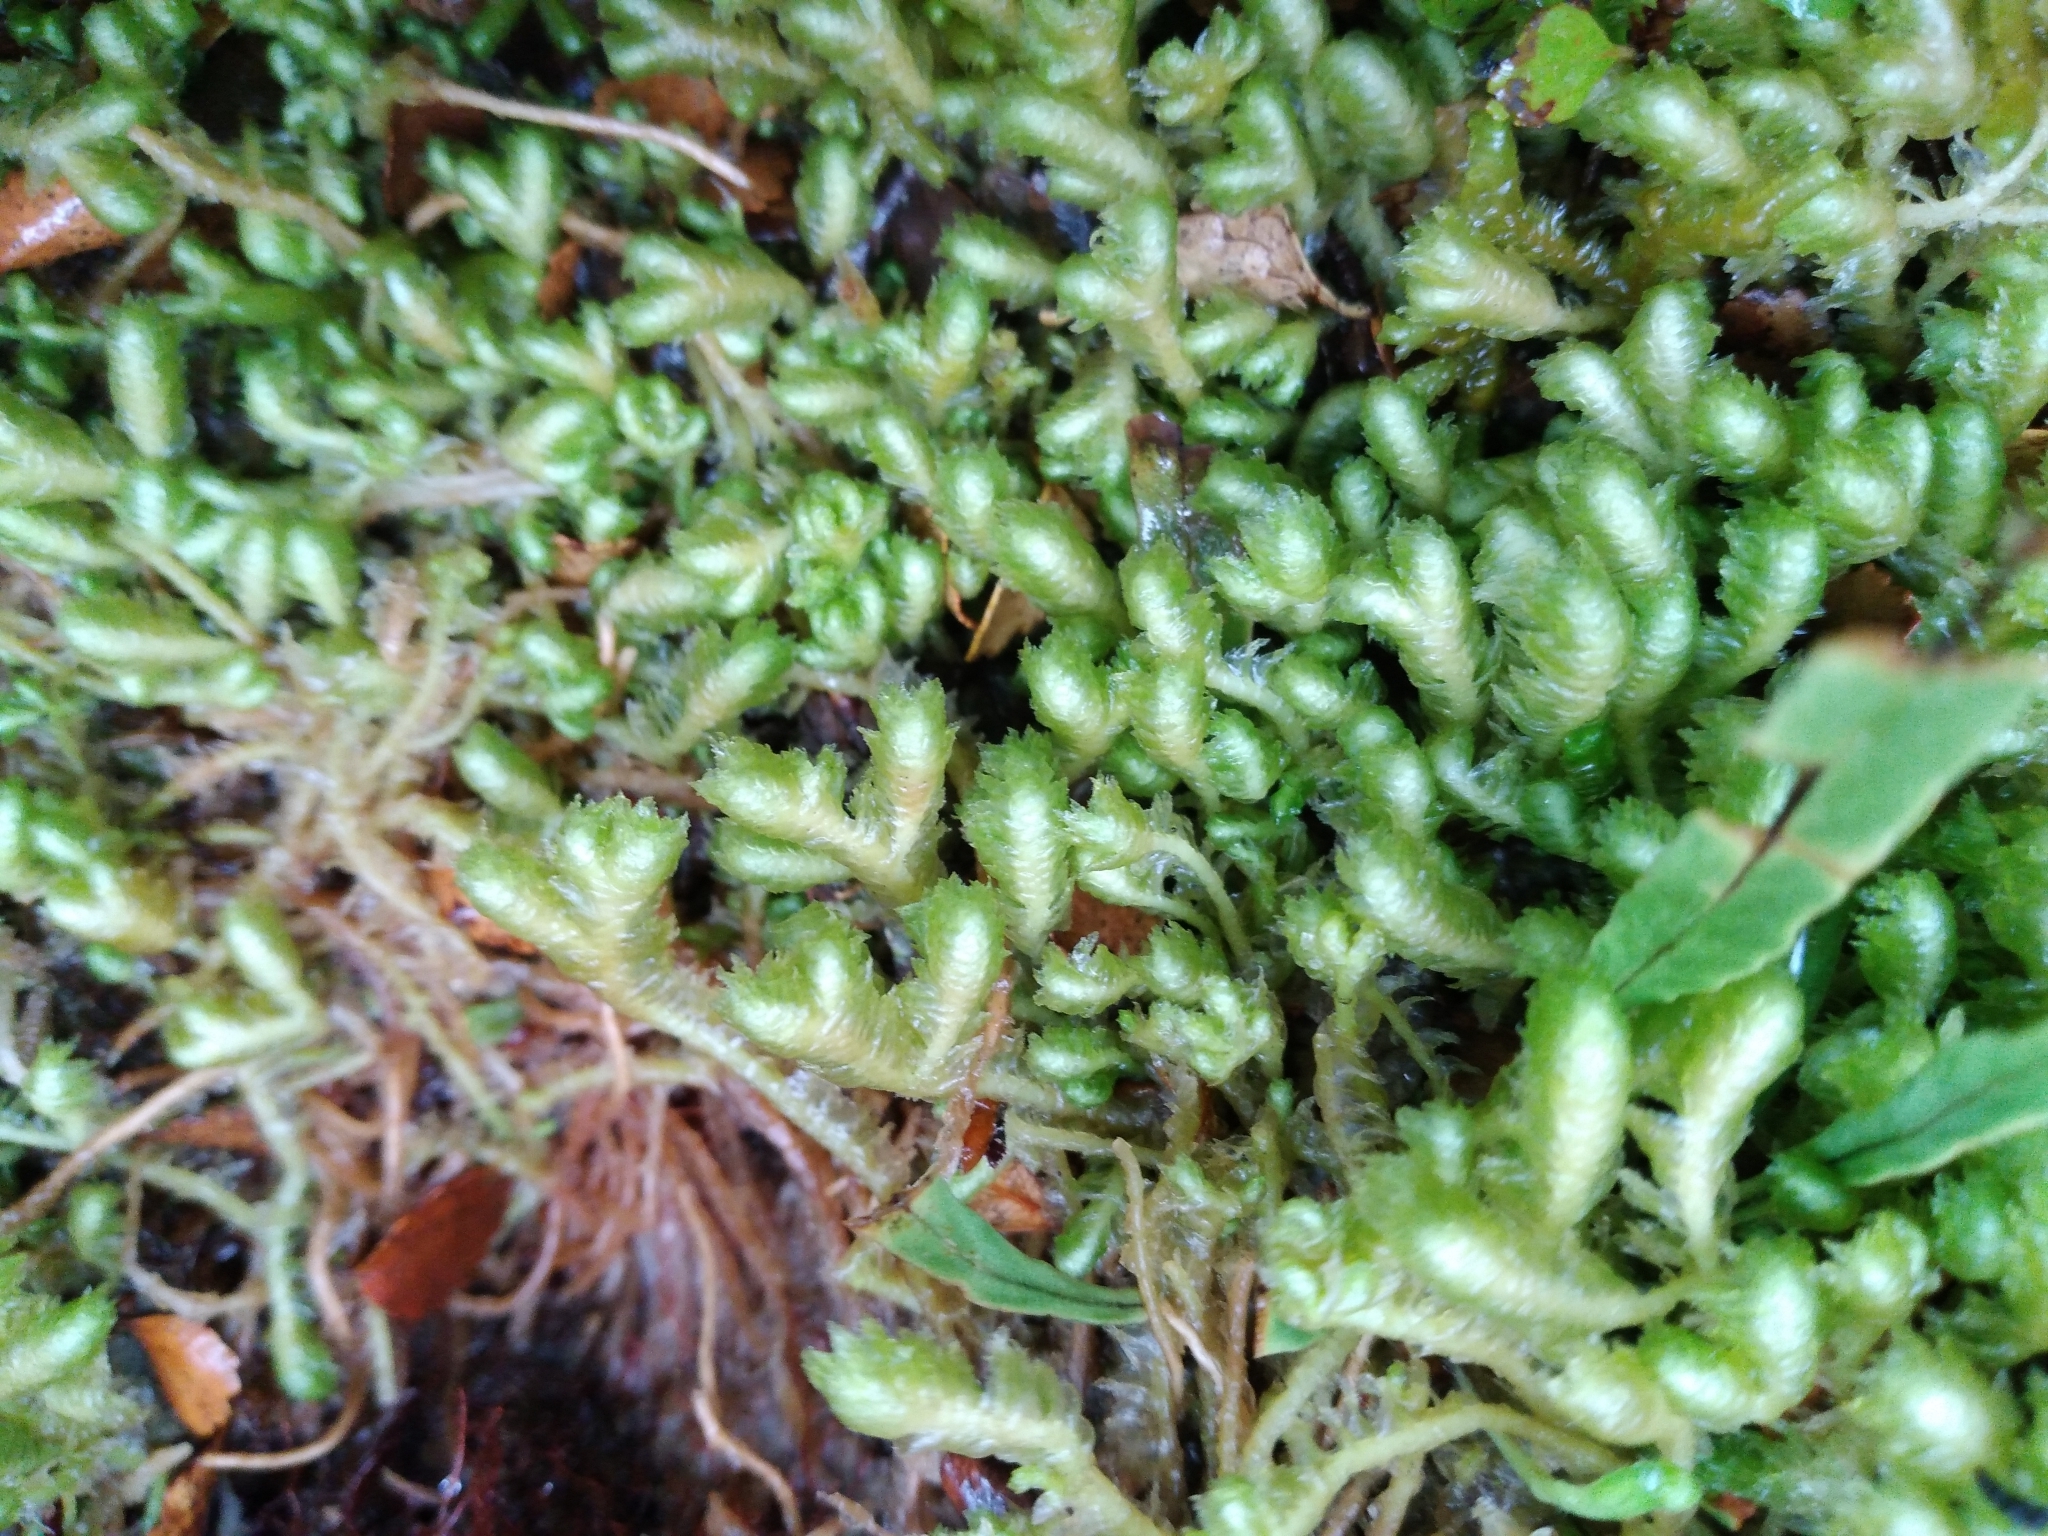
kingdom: Plantae
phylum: Marchantiophyta
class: Jungermanniopsida
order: Jungermanniales
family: Schistochilaceae
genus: Schistochila
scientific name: Schistochila pinnatifolia
